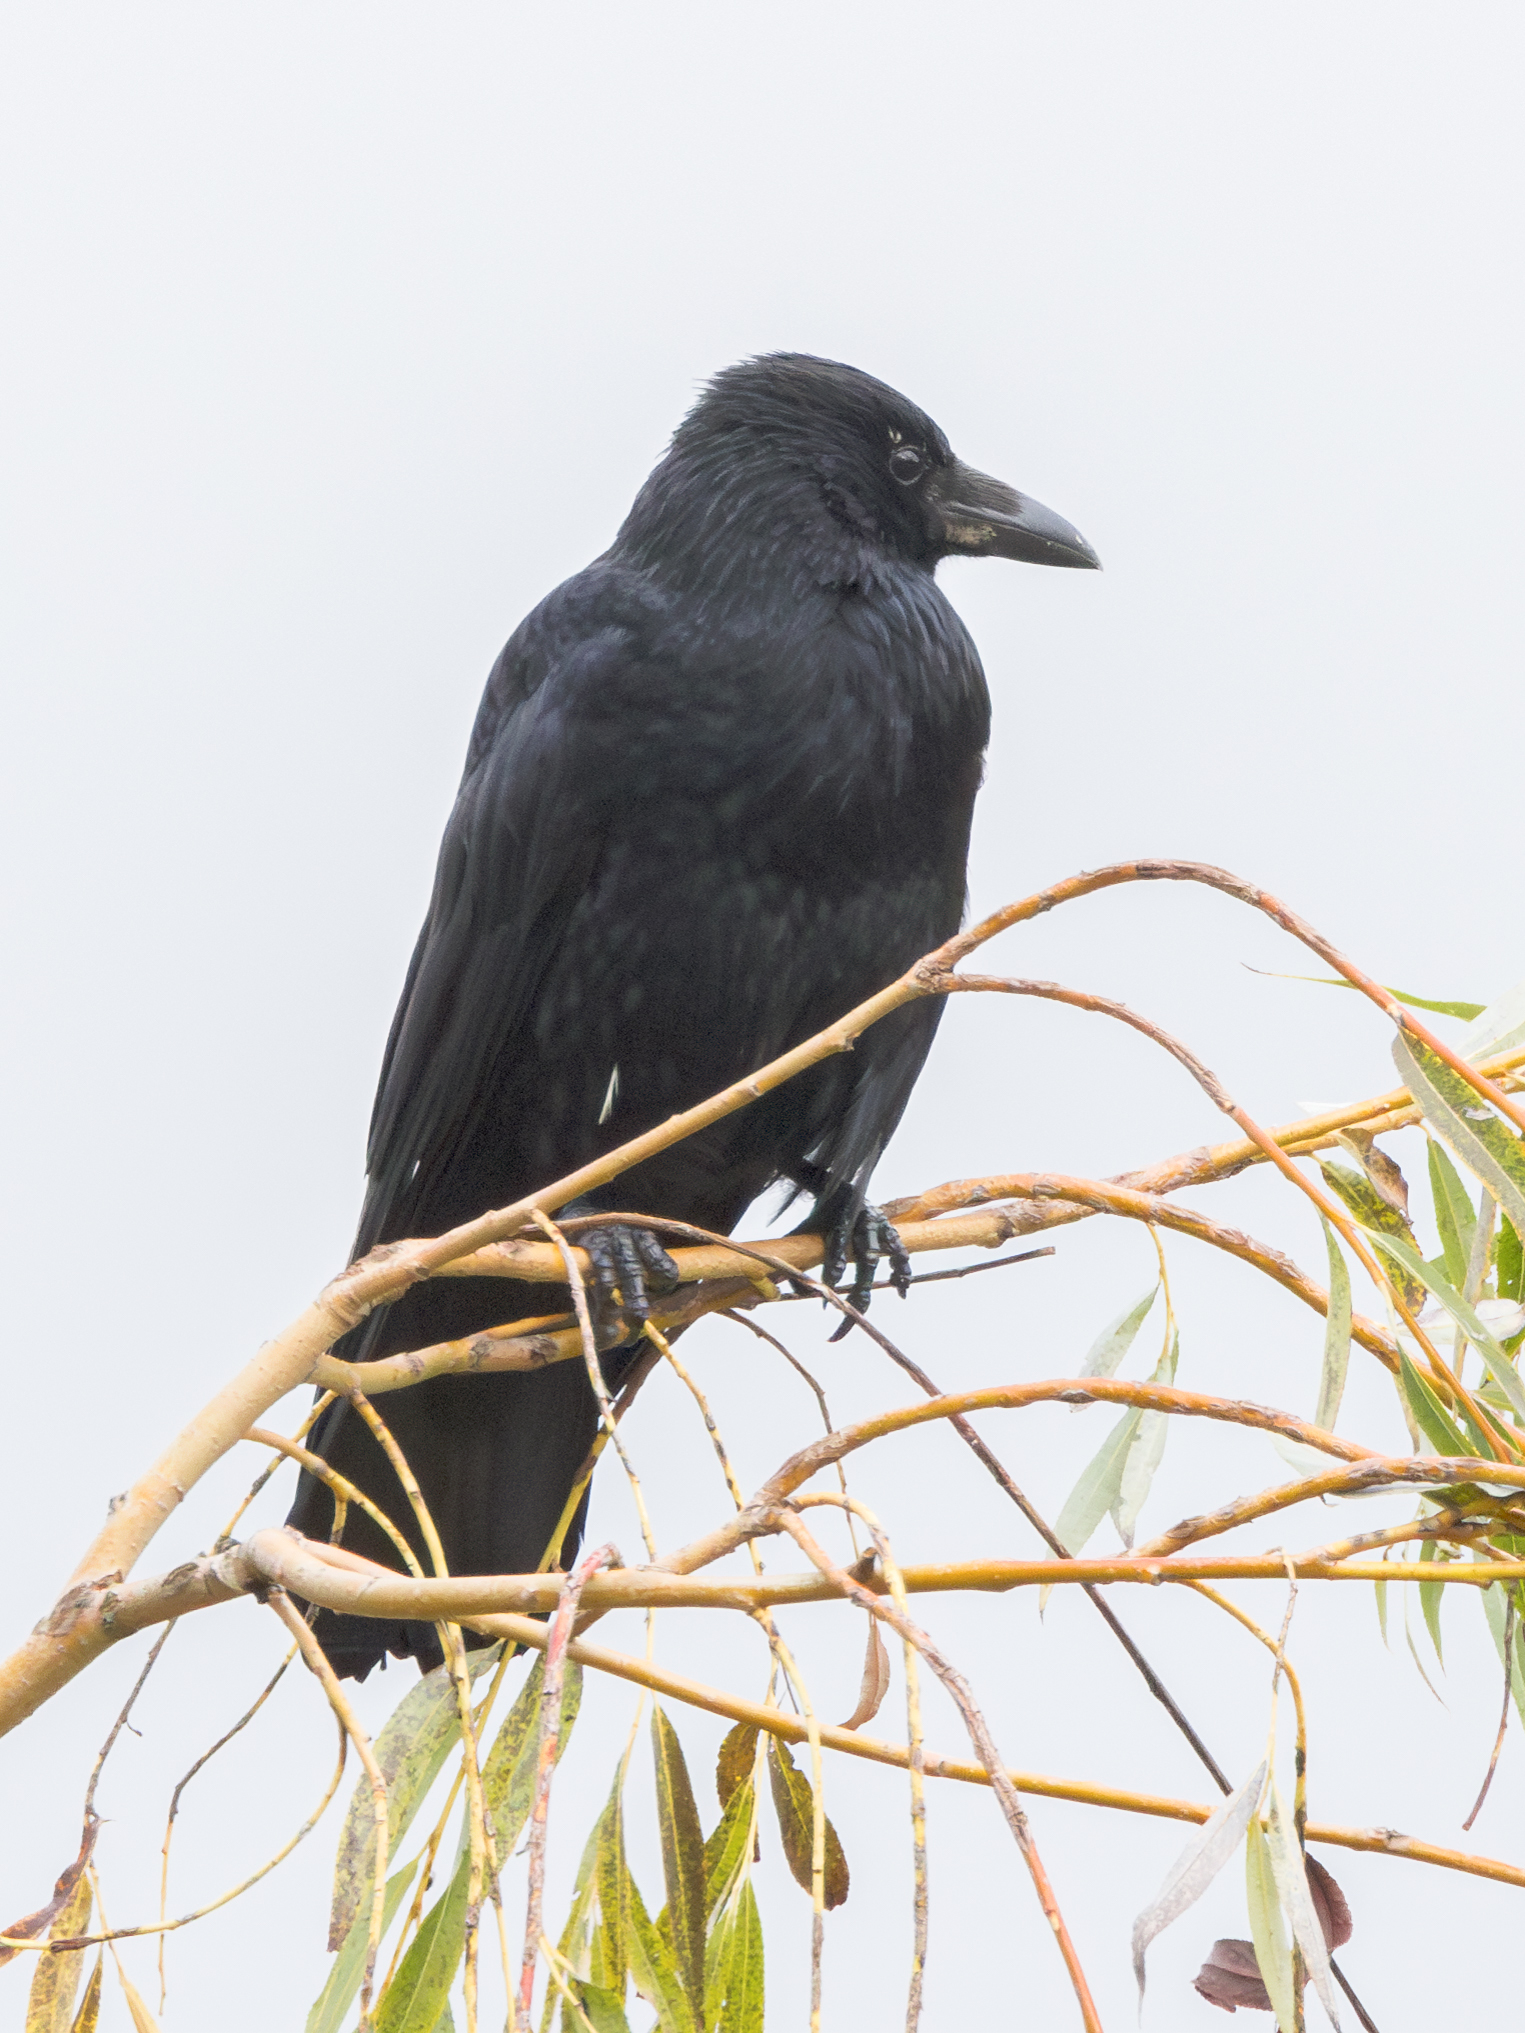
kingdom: Animalia
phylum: Chordata
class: Aves
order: Passeriformes
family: Corvidae
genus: Corvus
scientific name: Corvus corone
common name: Carrion crow
